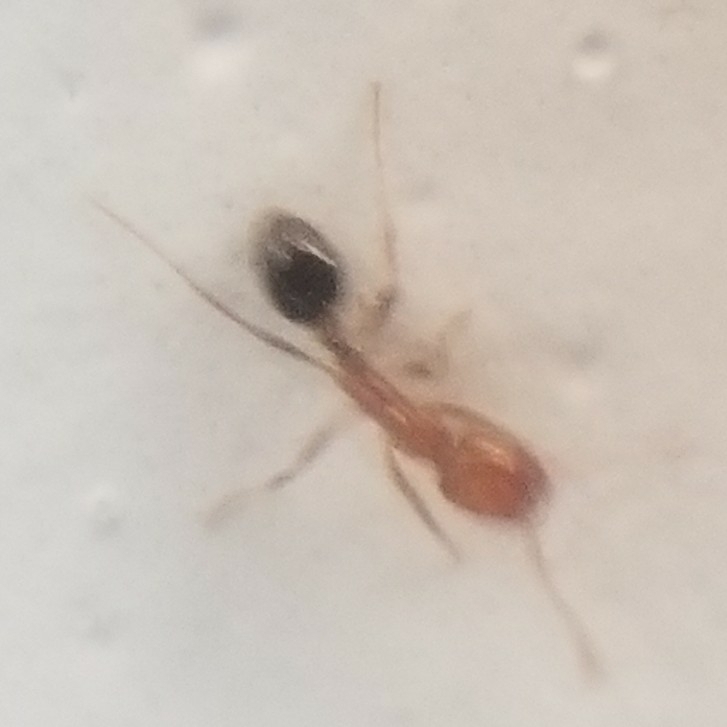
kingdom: Animalia
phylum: Arthropoda
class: Insecta
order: Hymenoptera
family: Formicidae
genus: Solenopsis
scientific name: Solenopsis xyloni
